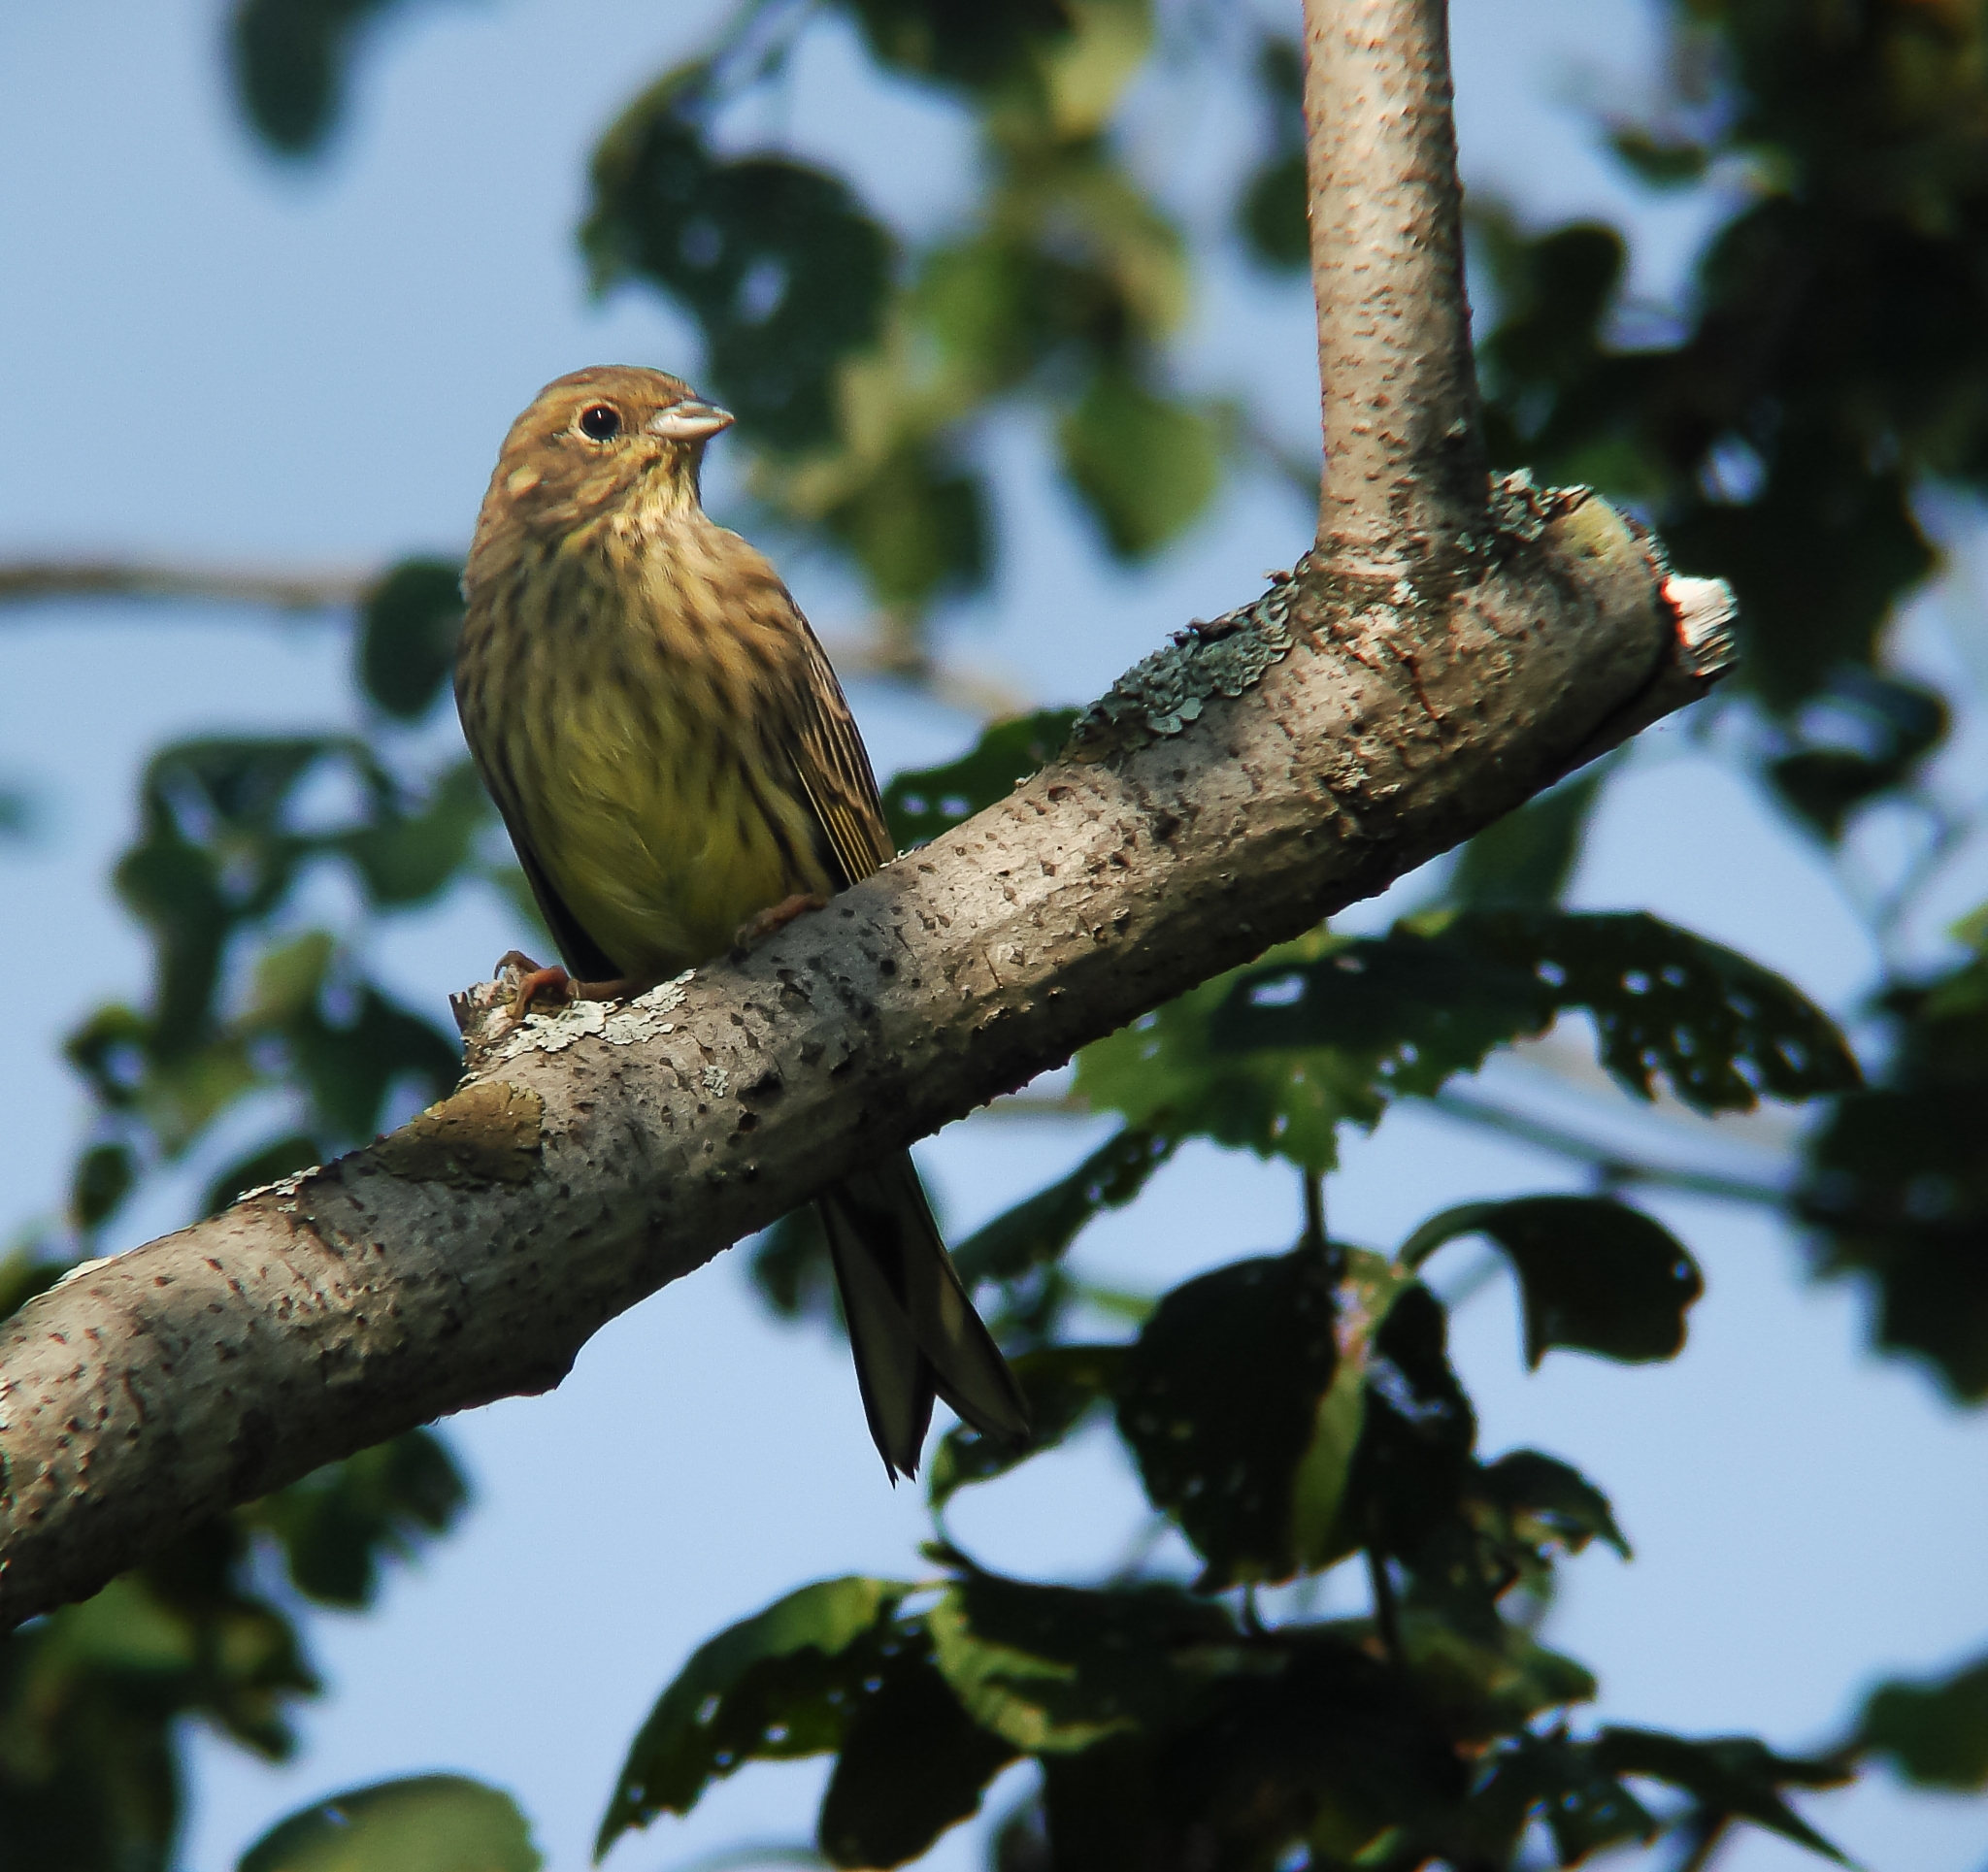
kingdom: Animalia
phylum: Chordata
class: Aves
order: Passeriformes
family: Emberizidae
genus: Emberiza
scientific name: Emberiza citrinella
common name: Yellowhammer
